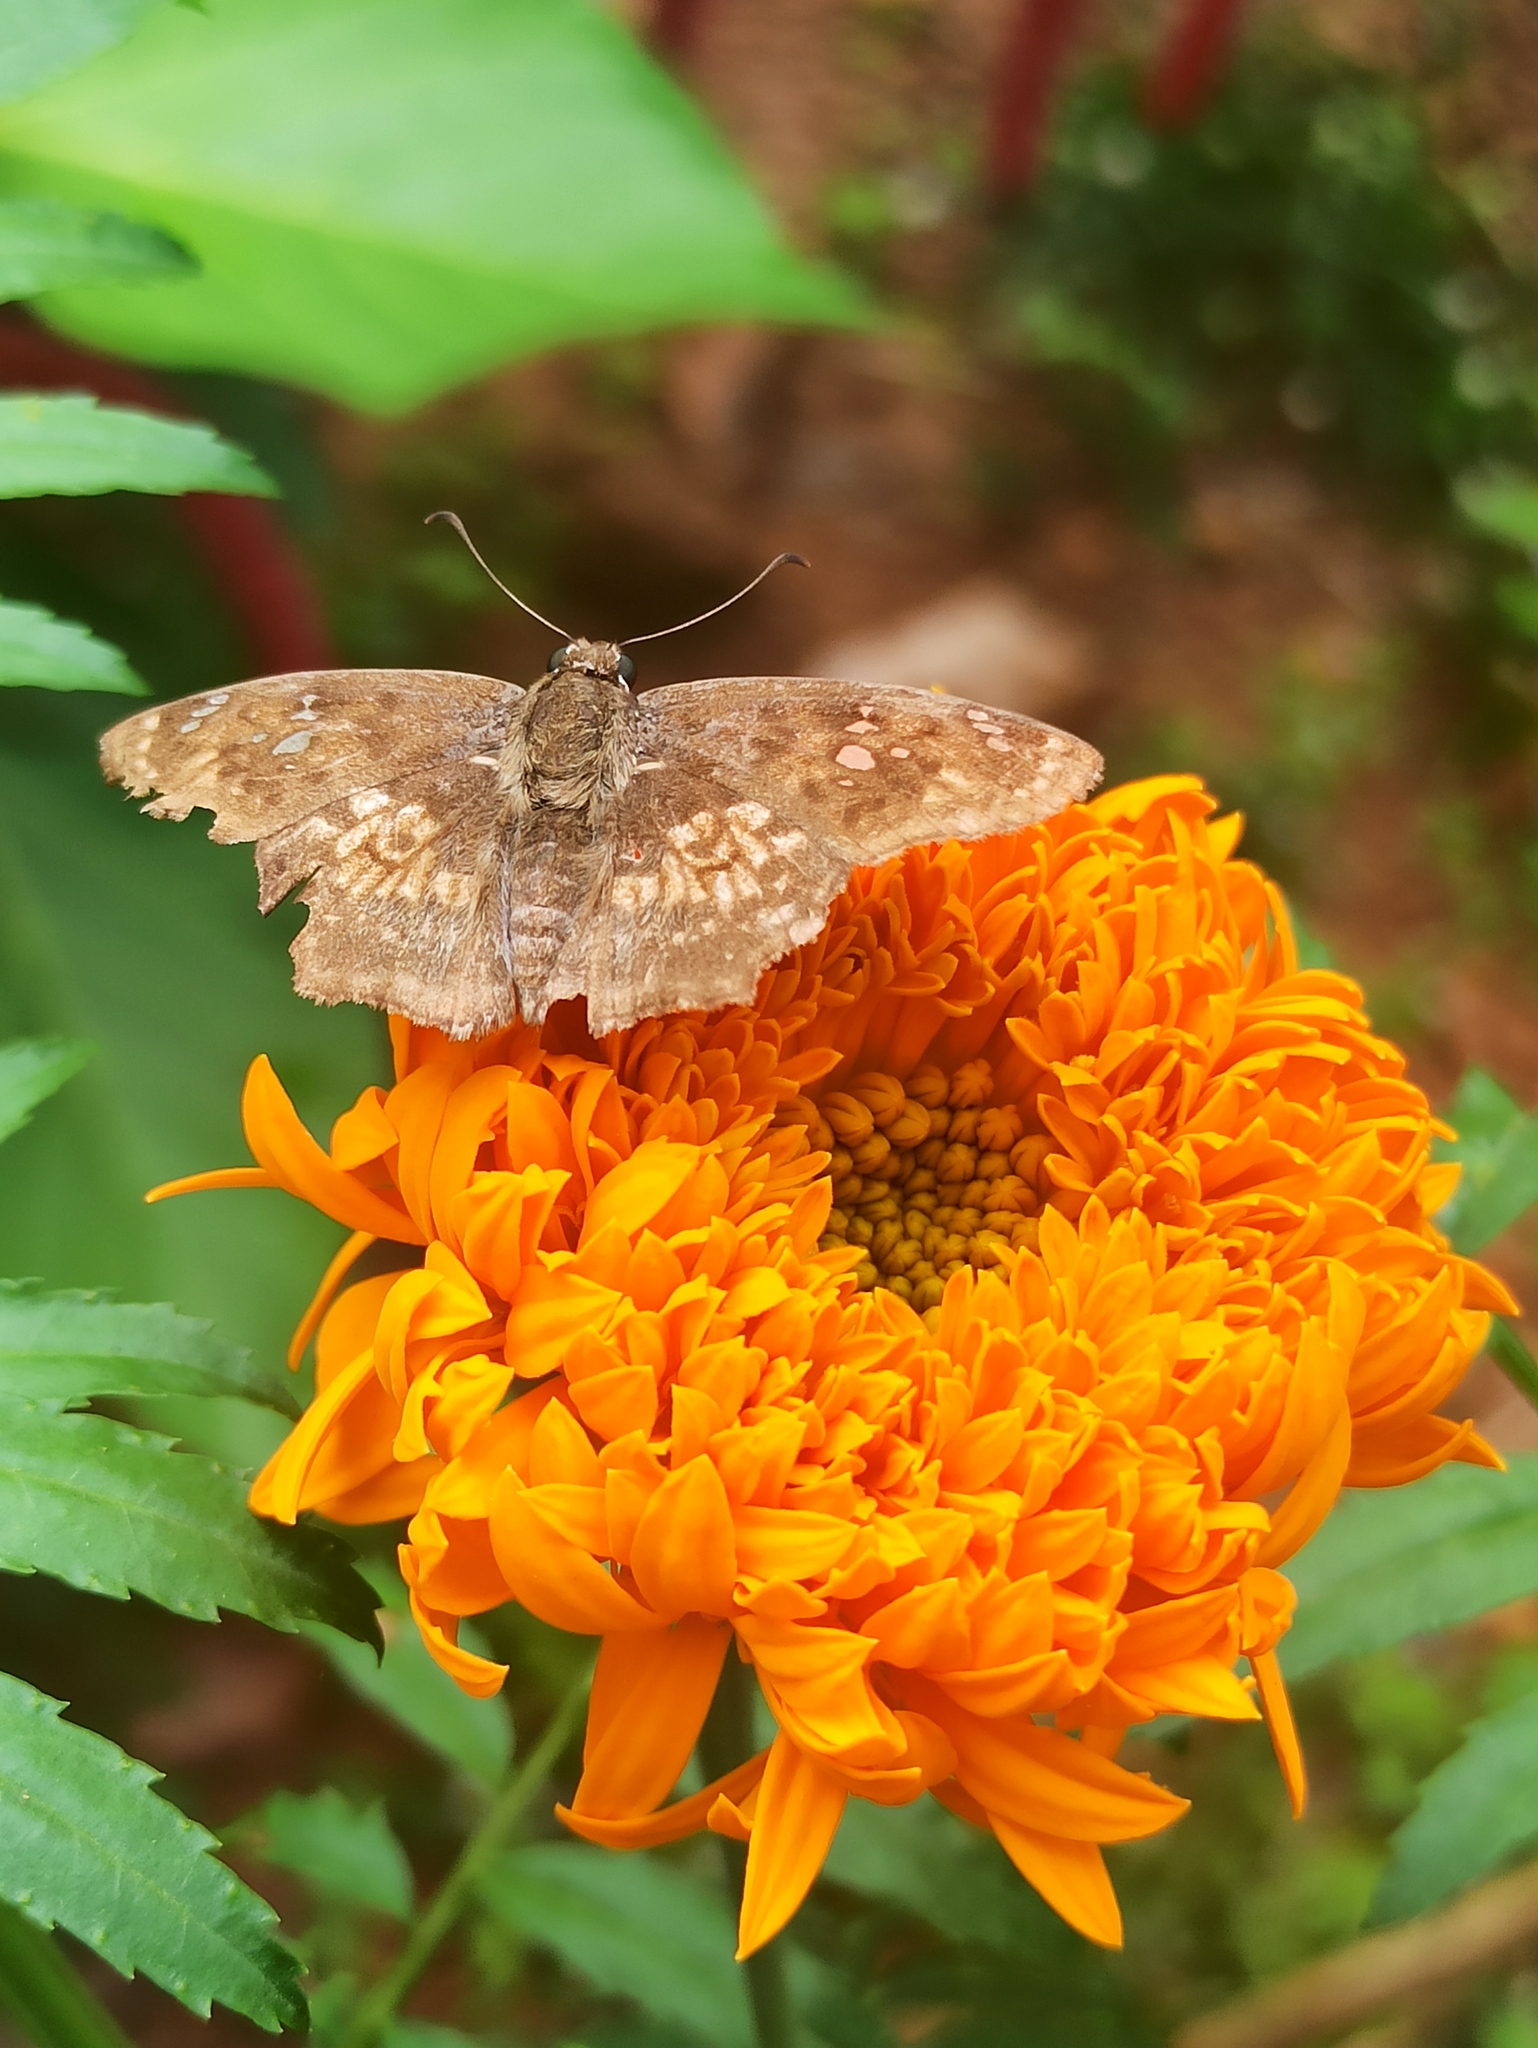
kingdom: Animalia
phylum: Arthropoda
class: Insecta
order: Lepidoptera
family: Hesperiidae
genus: Caprona
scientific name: Caprona ransonnettii
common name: Golden angle
